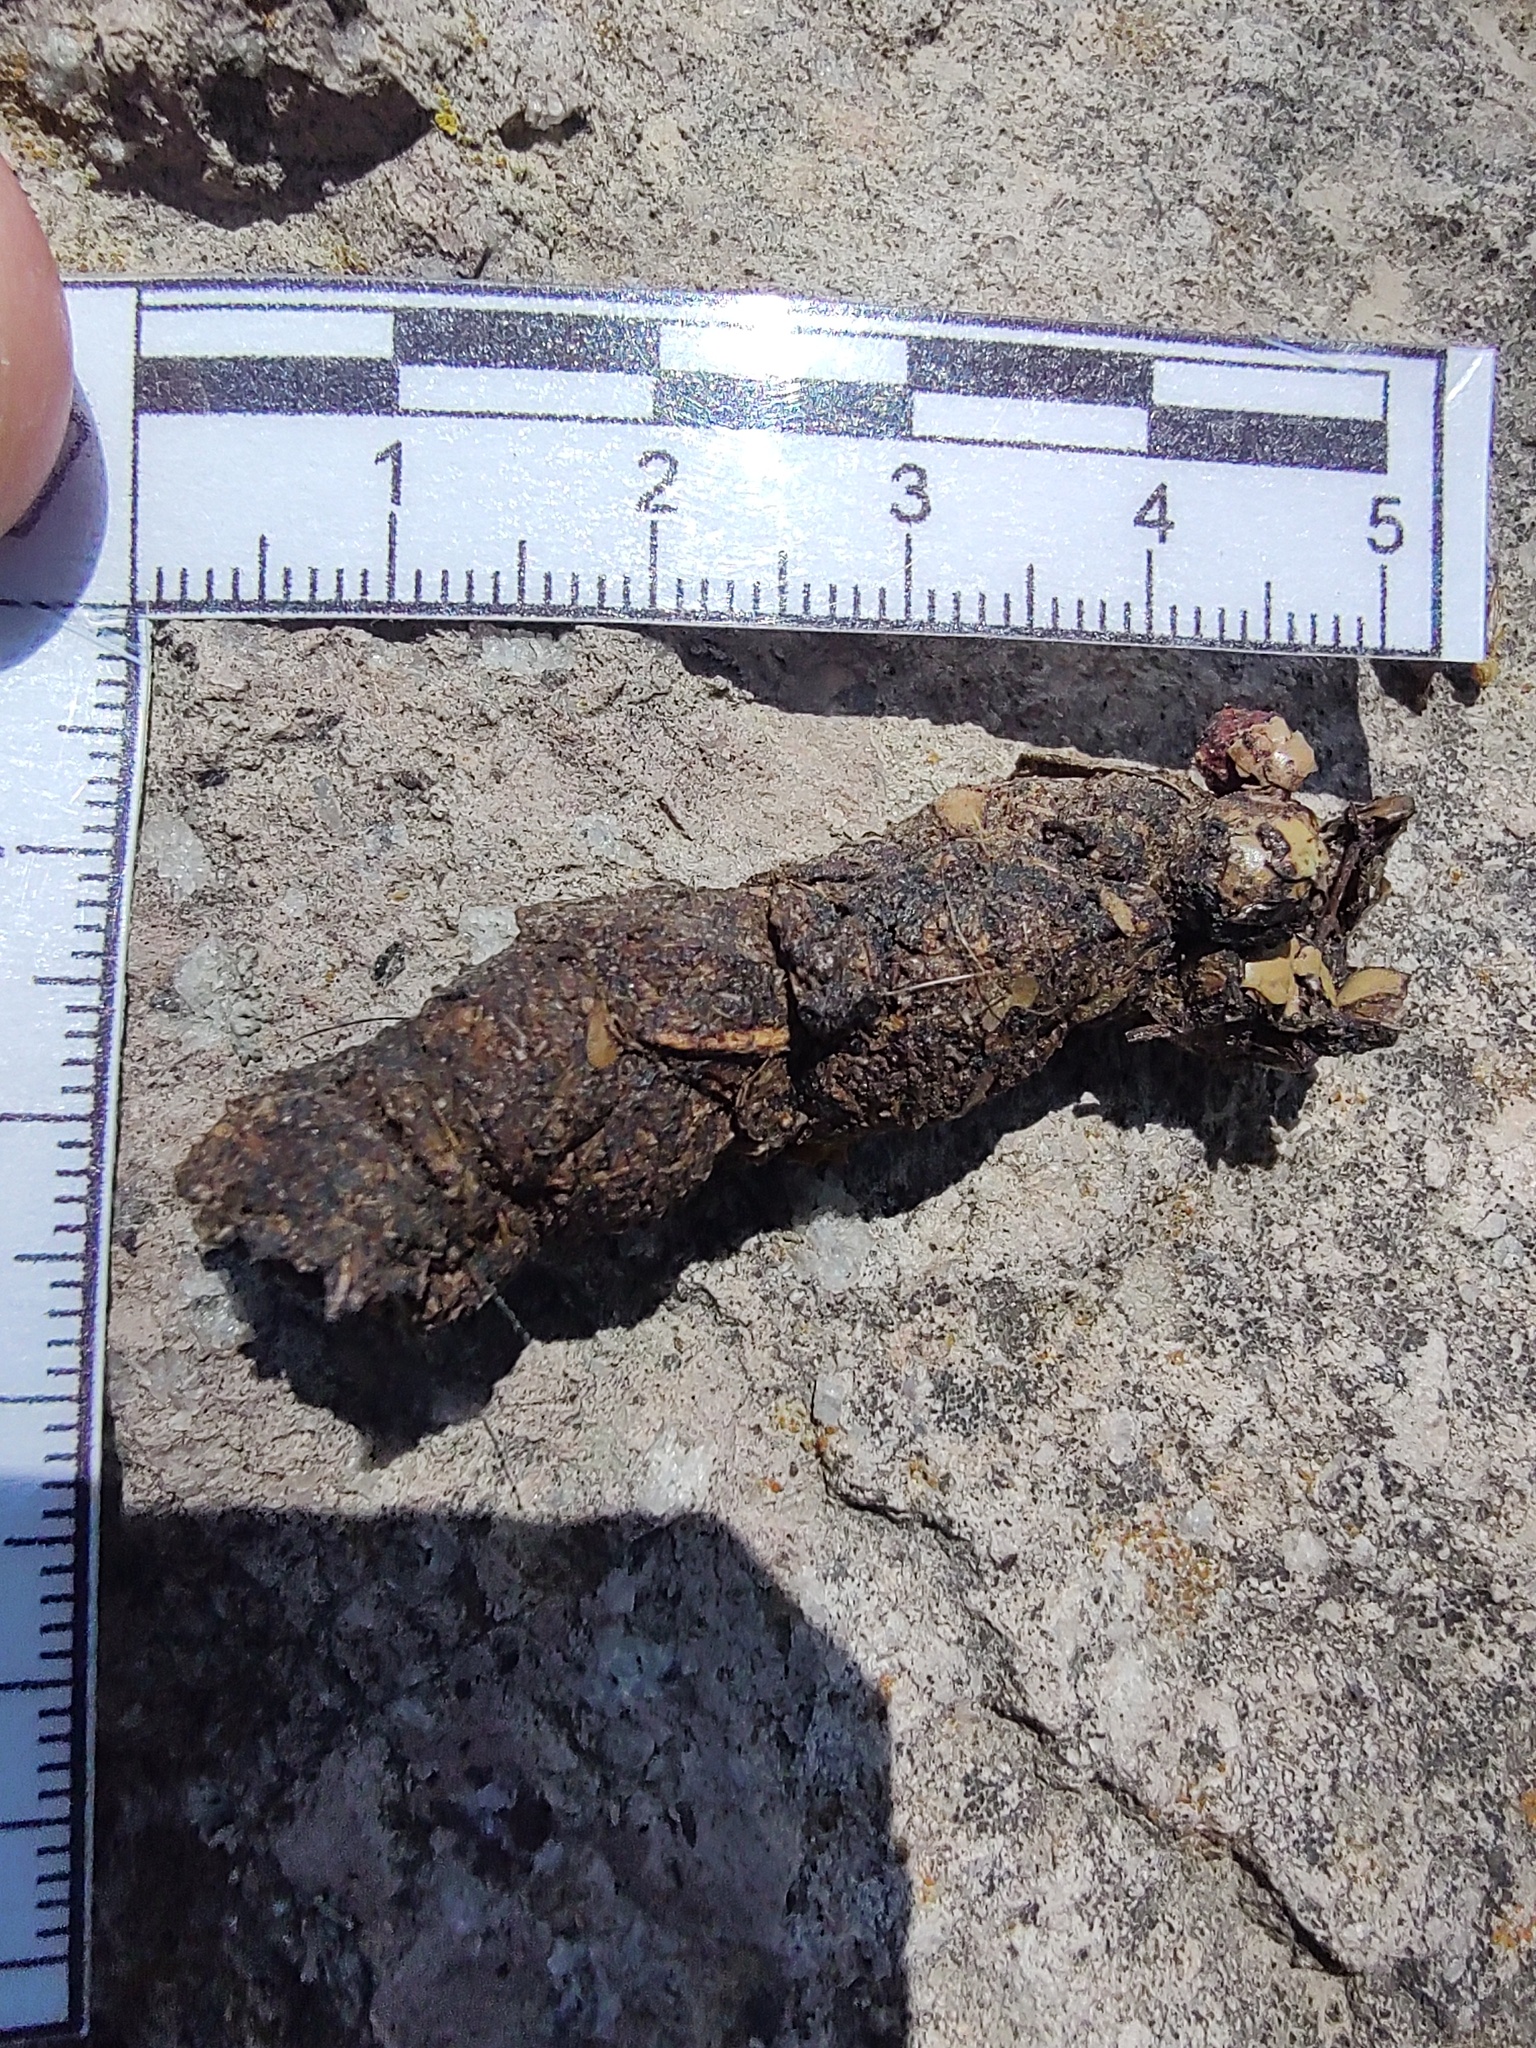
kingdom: Animalia
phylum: Chordata
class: Mammalia
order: Carnivora
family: Procyonidae
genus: Bassariscus
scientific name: Bassariscus astutus
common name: Ringtail
